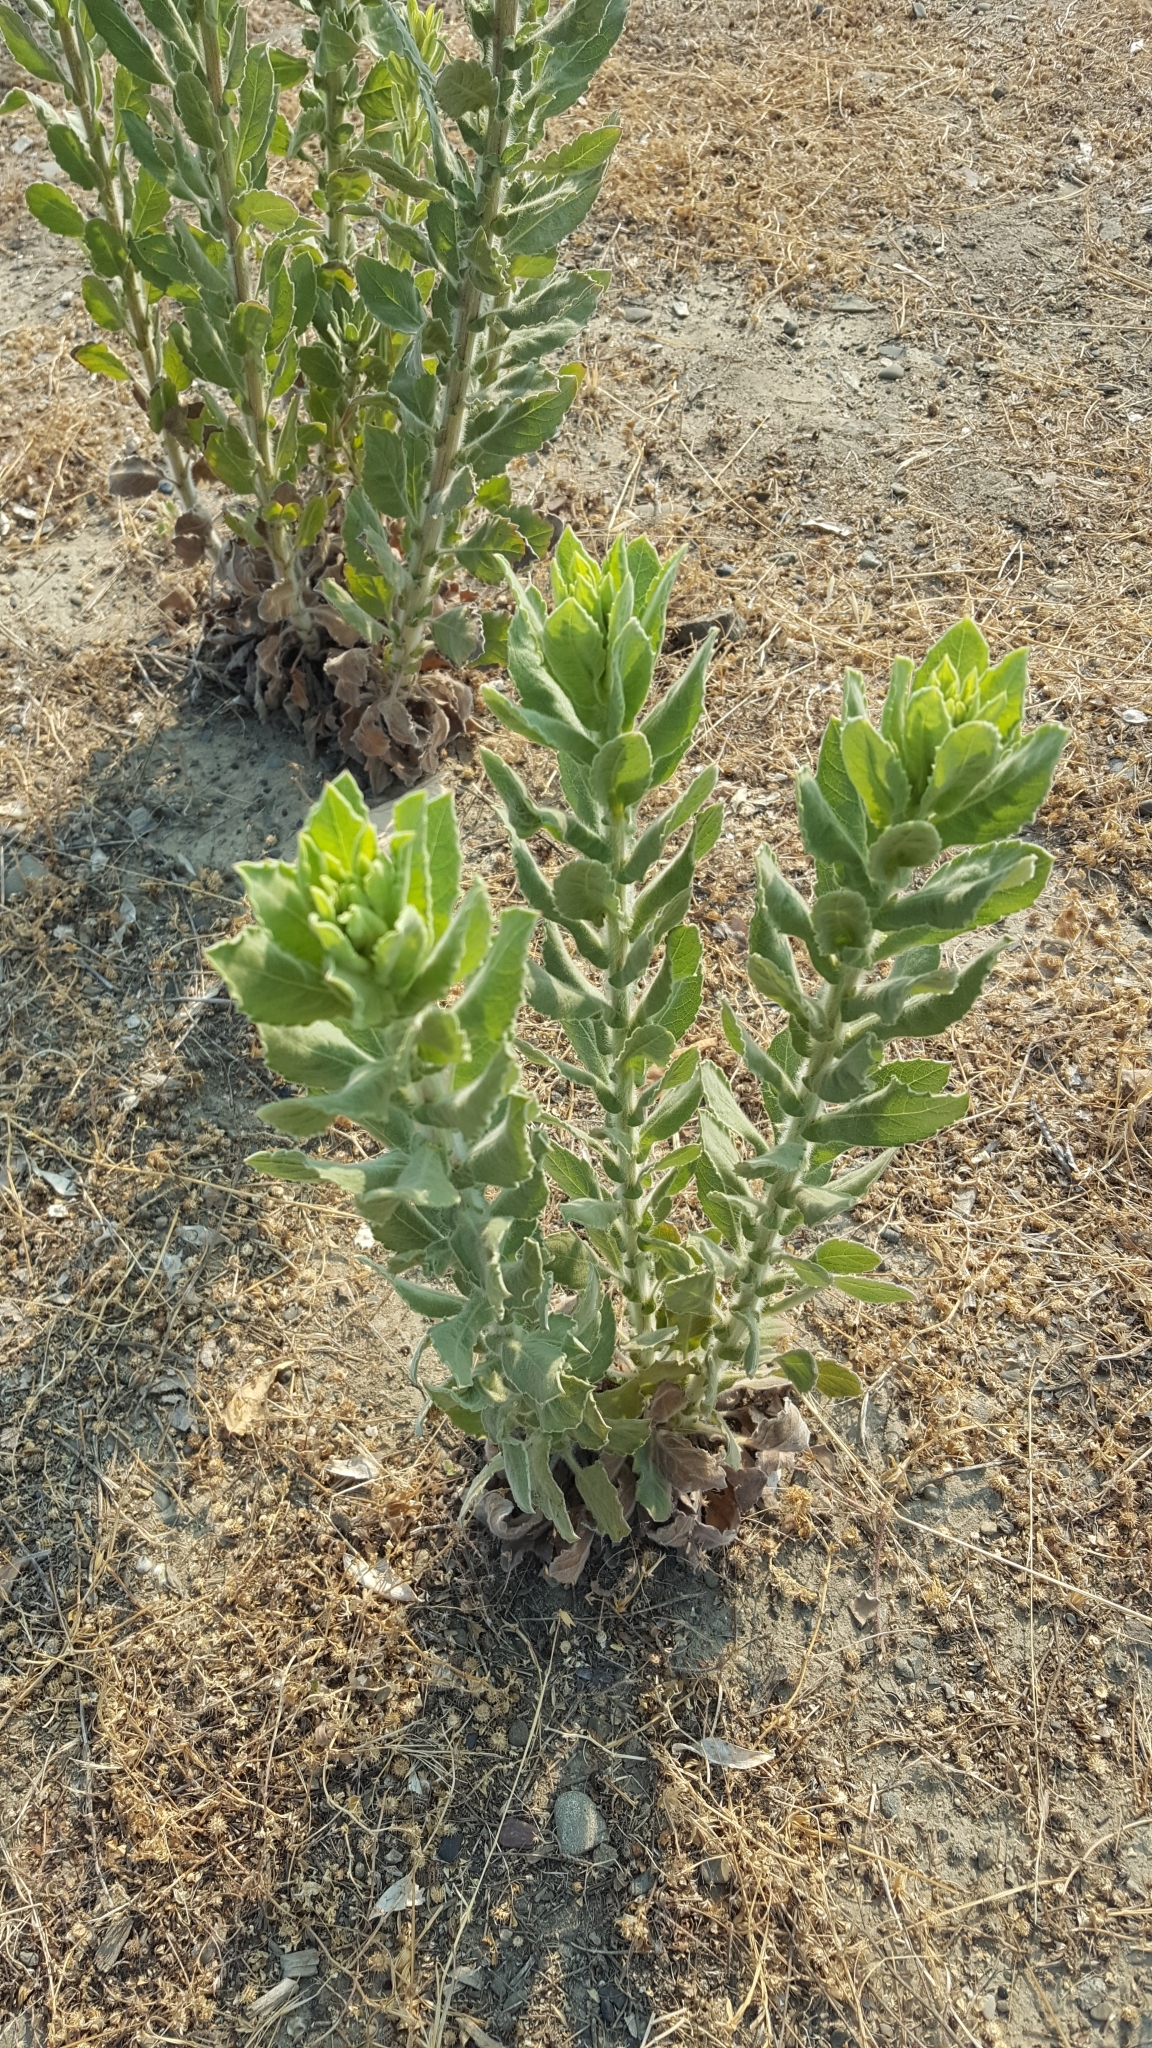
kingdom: Plantae
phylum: Tracheophyta
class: Magnoliopsida
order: Asterales
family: Asteraceae
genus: Heterotheca
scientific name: Heterotheca grandiflora
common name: Telegraphweed
